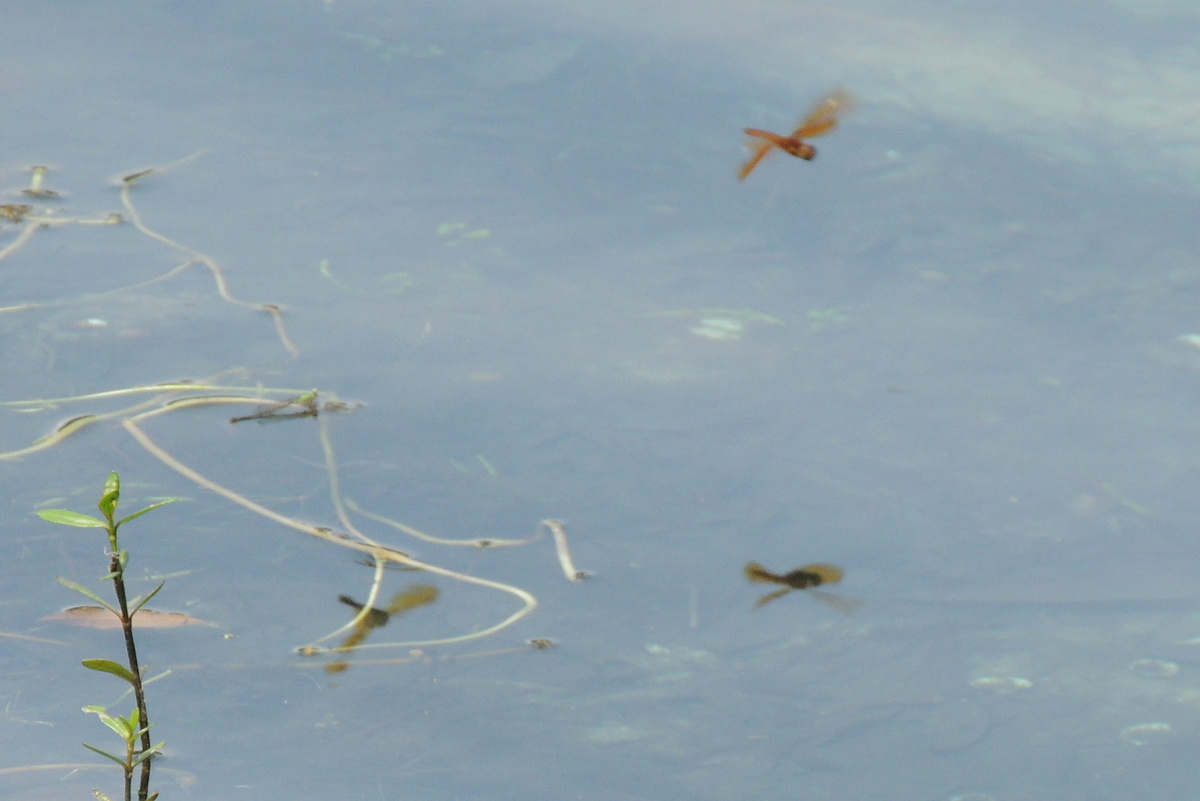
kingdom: Animalia
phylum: Arthropoda
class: Insecta
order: Odonata
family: Libellulidae
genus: Perithemis
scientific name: Perithemis tenera
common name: Eastern amberwing
